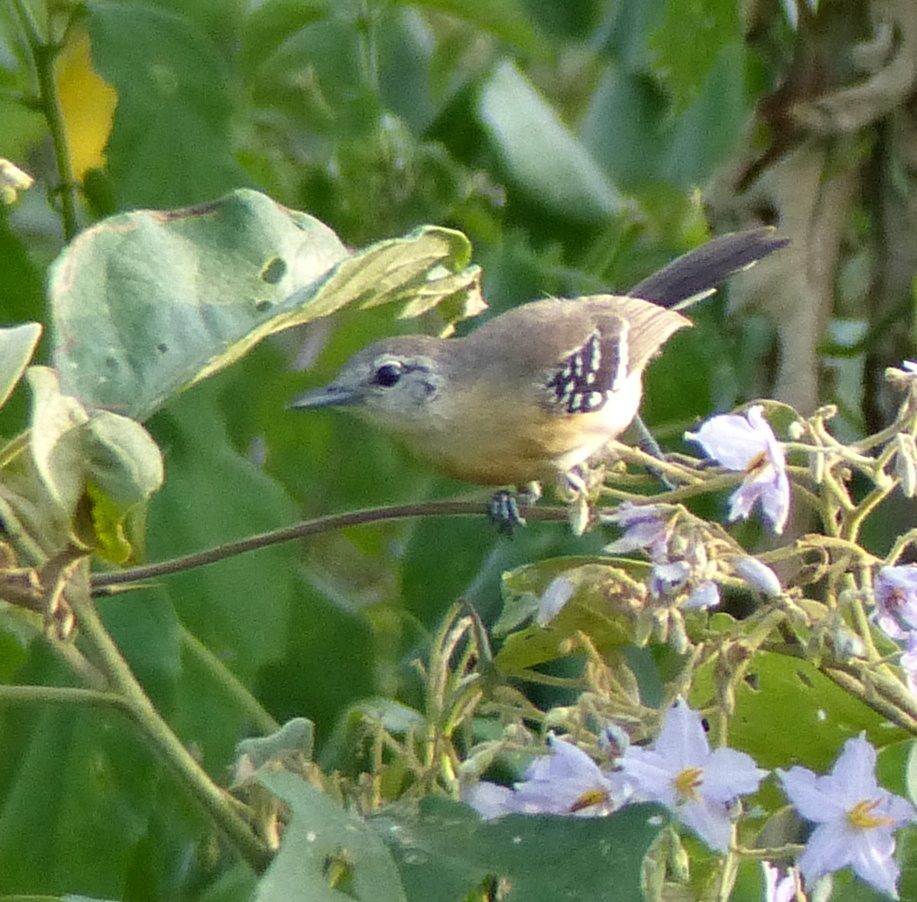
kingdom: Animalia
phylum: Chordata
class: Aves
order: Passeriformes
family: Thamnophilidae
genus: Formicivora
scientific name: Formicivora grisea
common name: Southern white-fringed antwren
